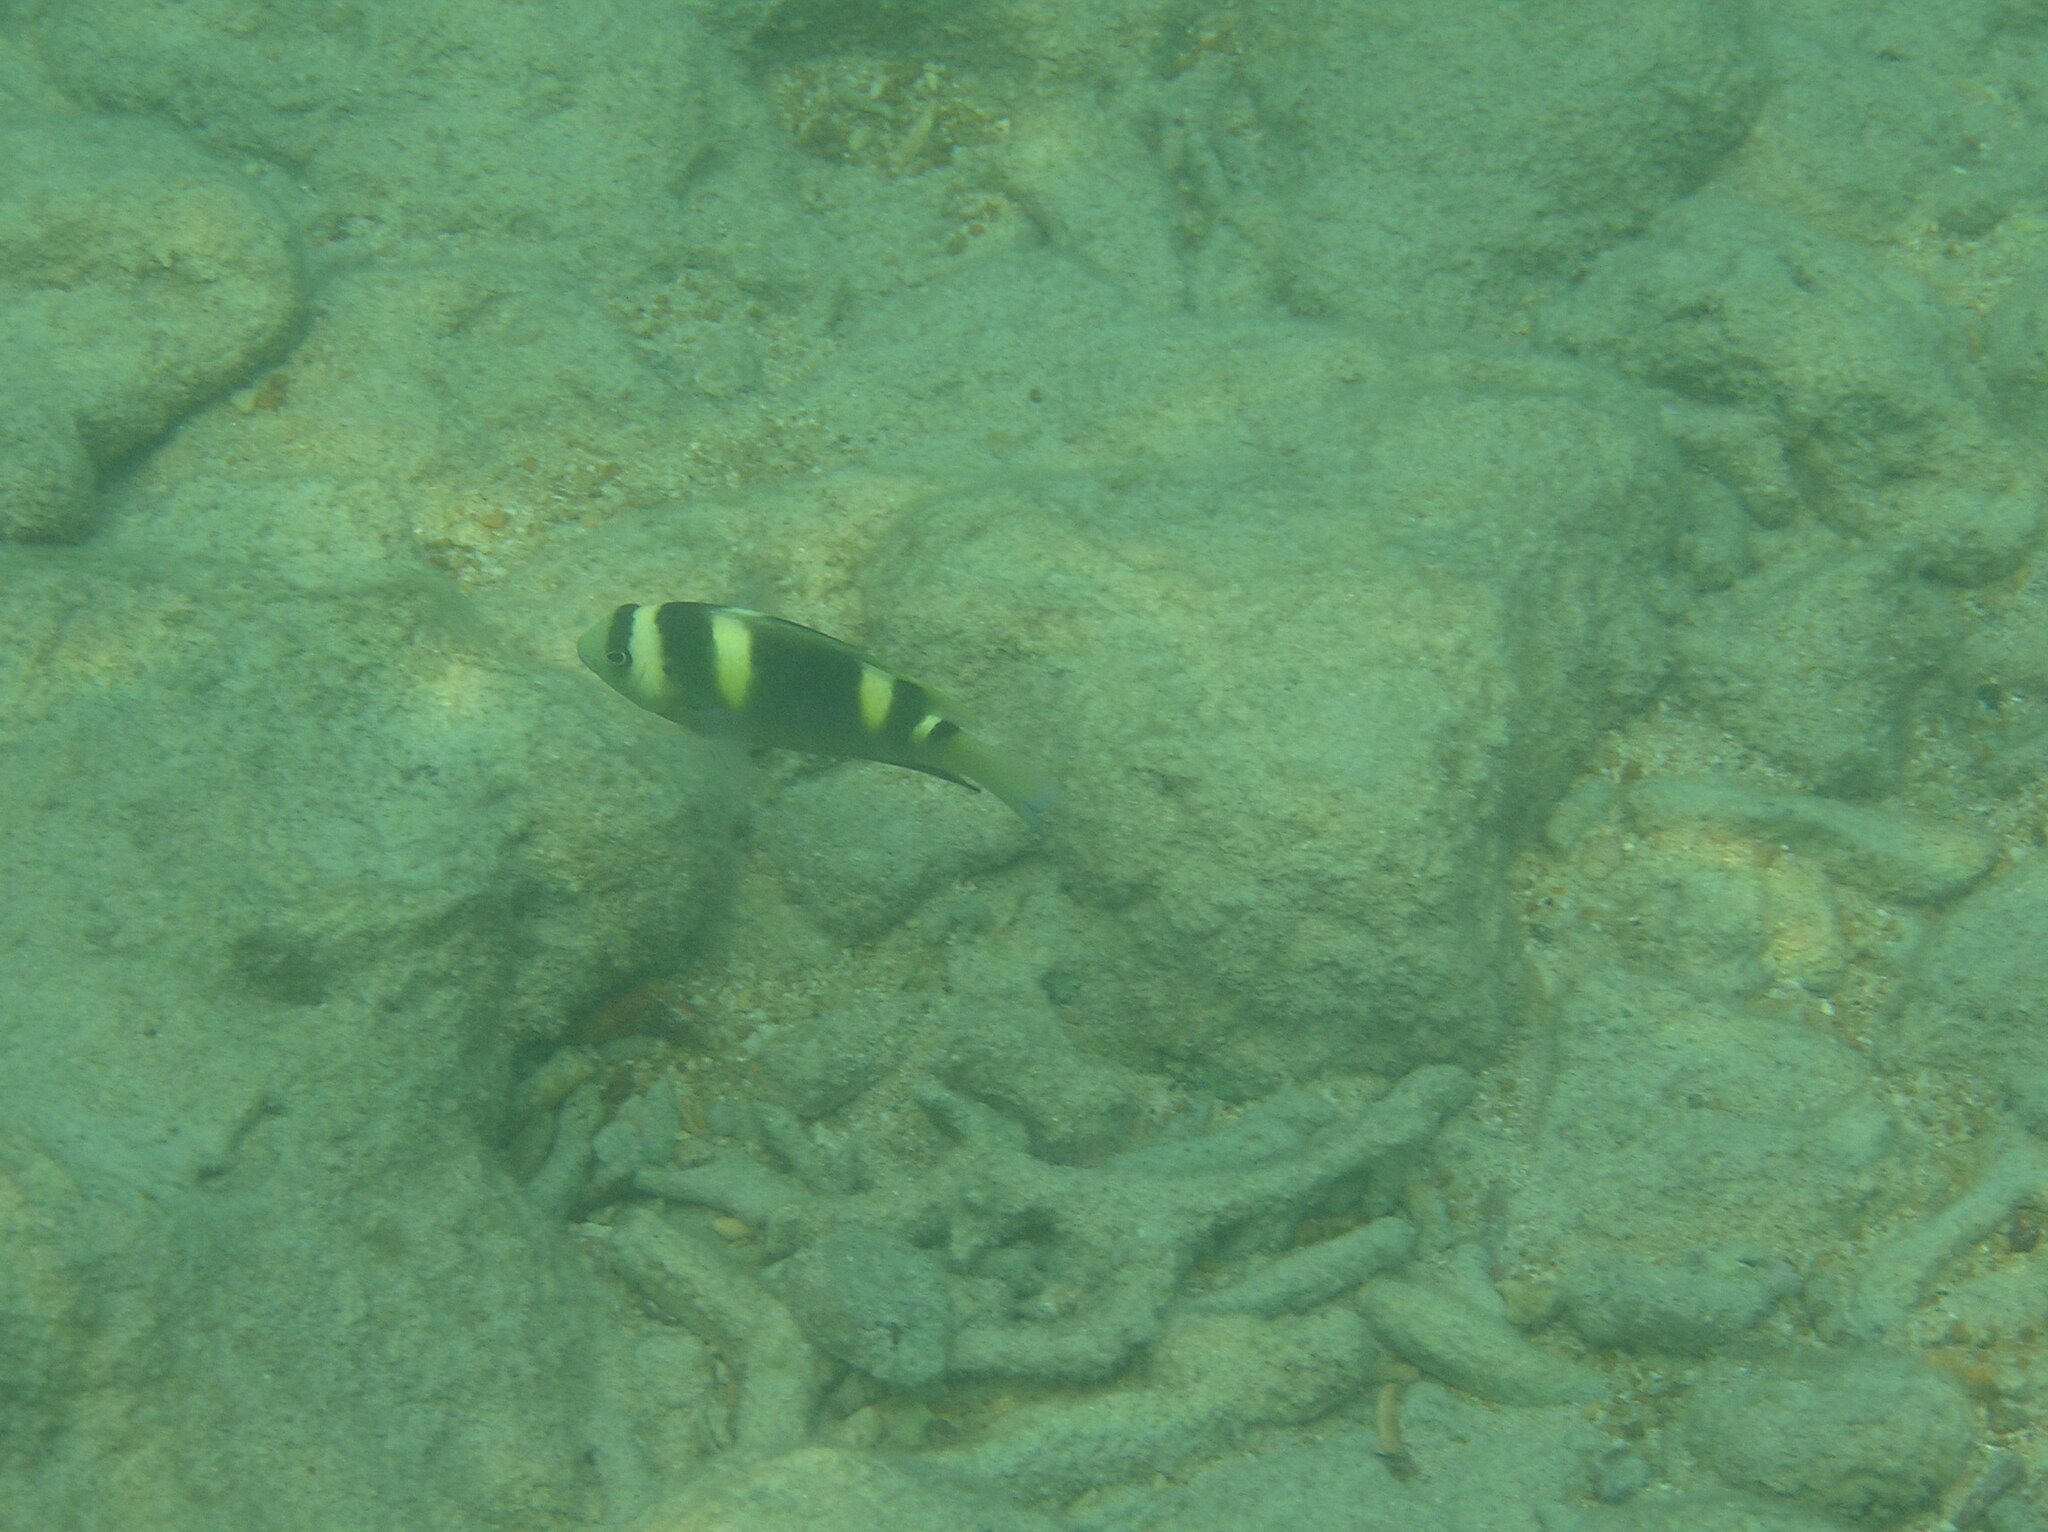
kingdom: Animalia
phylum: Chordata
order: Perciformes
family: Pomacentridae
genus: Dischistodus
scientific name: Dischistodus fasciatus
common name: Banded damsel
